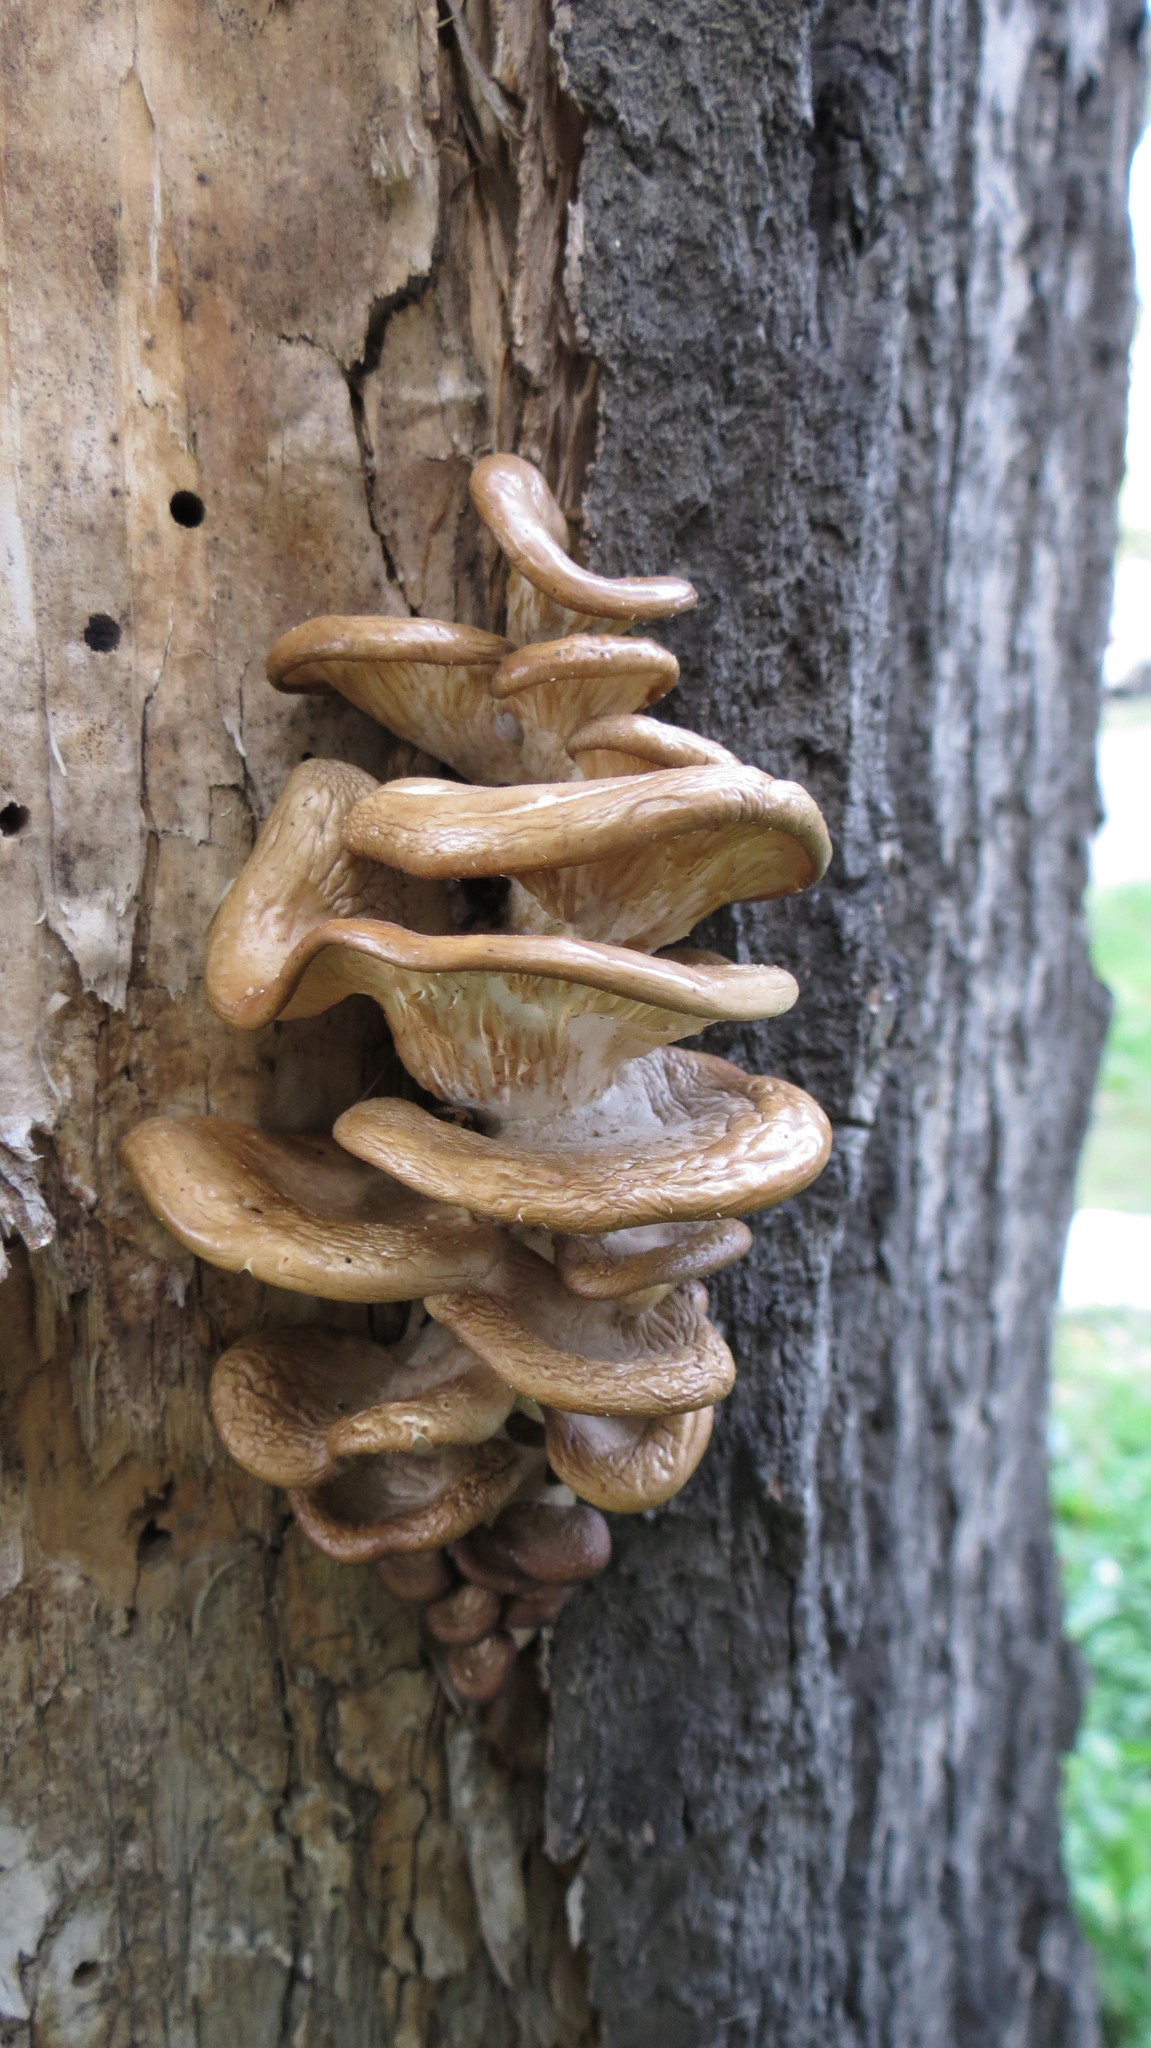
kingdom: Fungi
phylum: Basidiomycota
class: Agaricomycetes
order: Agaricales
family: Pleurotaceae
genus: Pleurotus
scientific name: Pleurotus ostreatus
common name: Oyster mushroom
